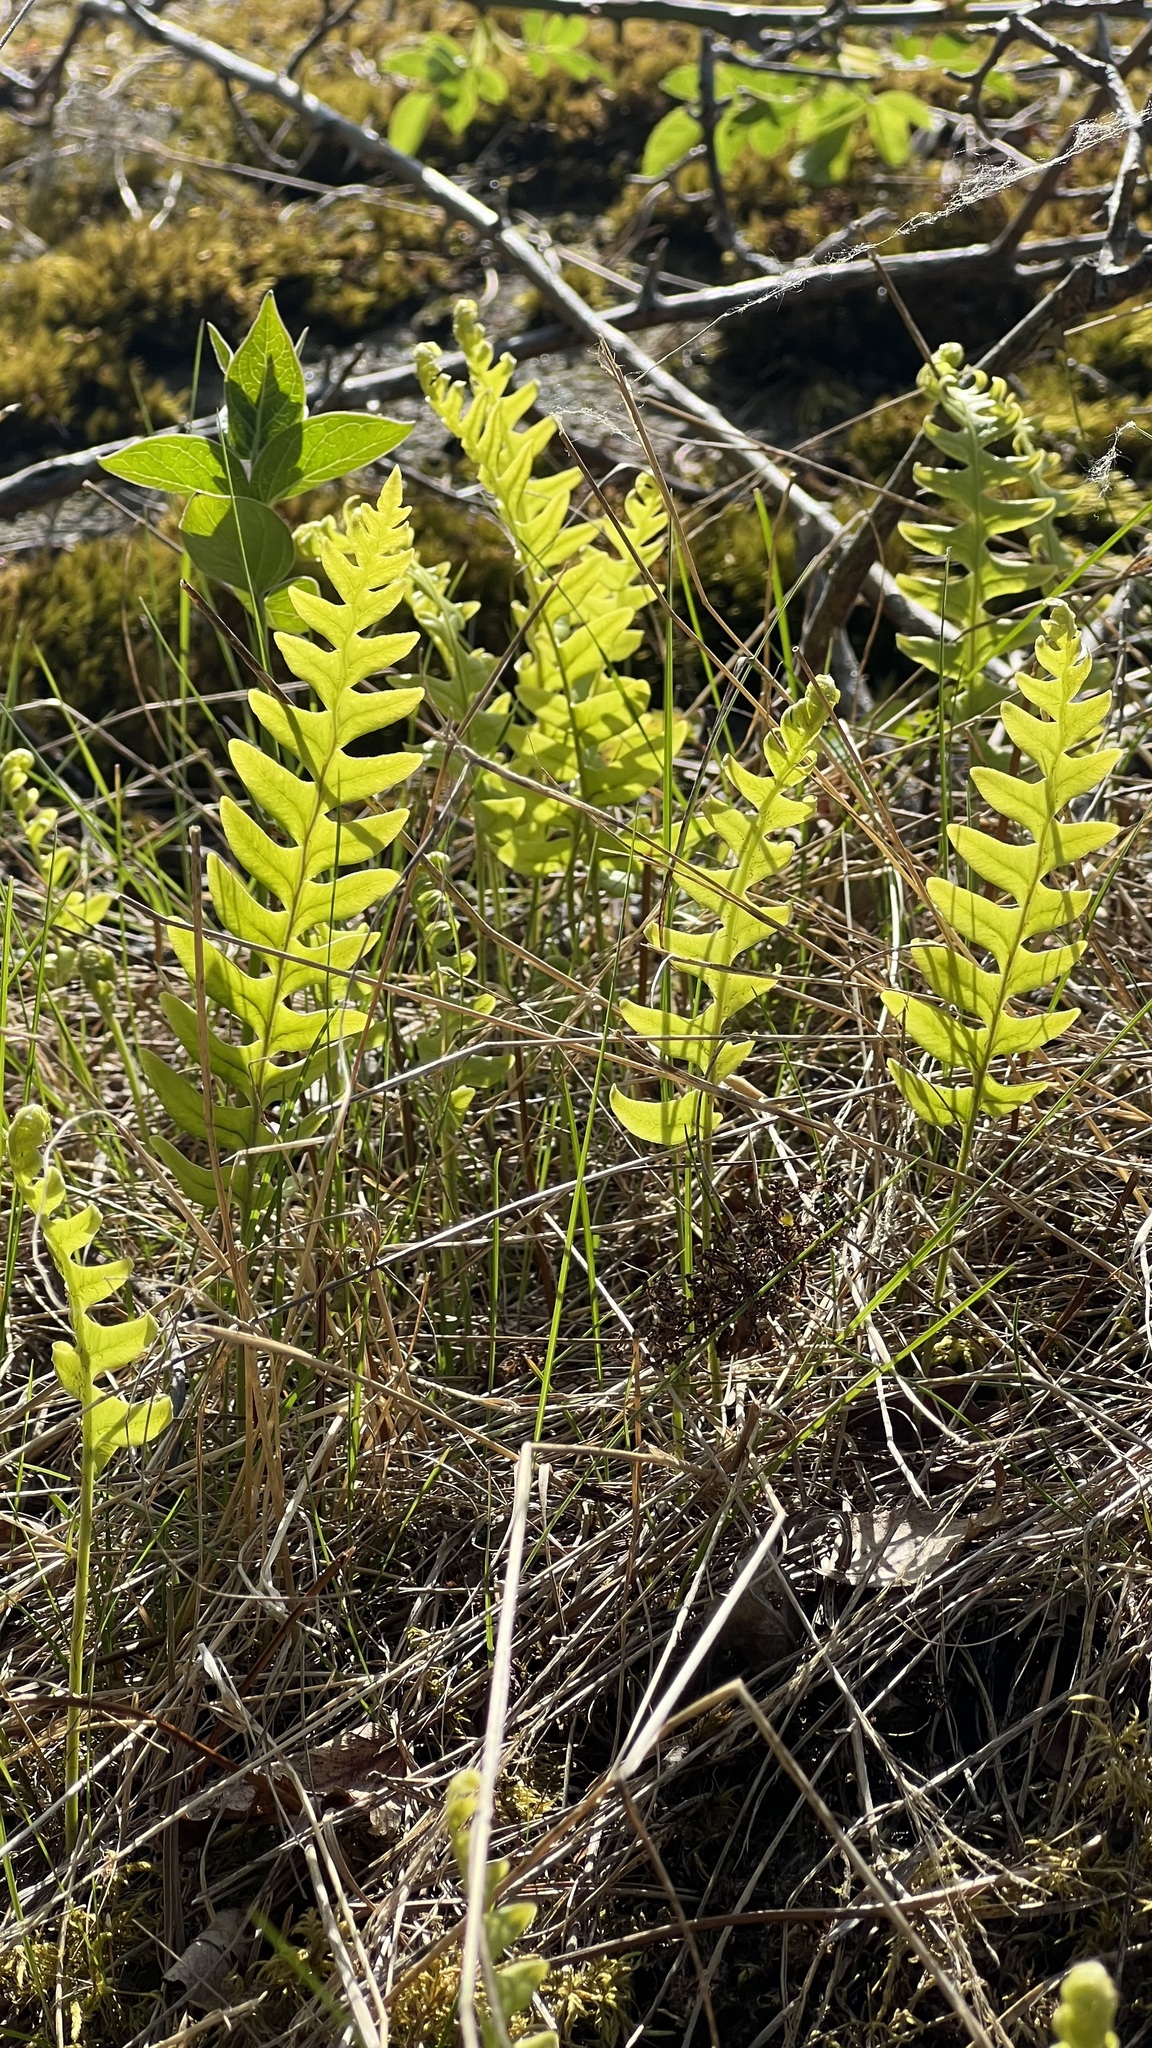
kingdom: Plantae
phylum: Tracheophyta
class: Polypodiopsida
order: Polypodiales
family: Polypodiaceae
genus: Polypodium
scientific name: Polypodium vulgare
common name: Common polypody
